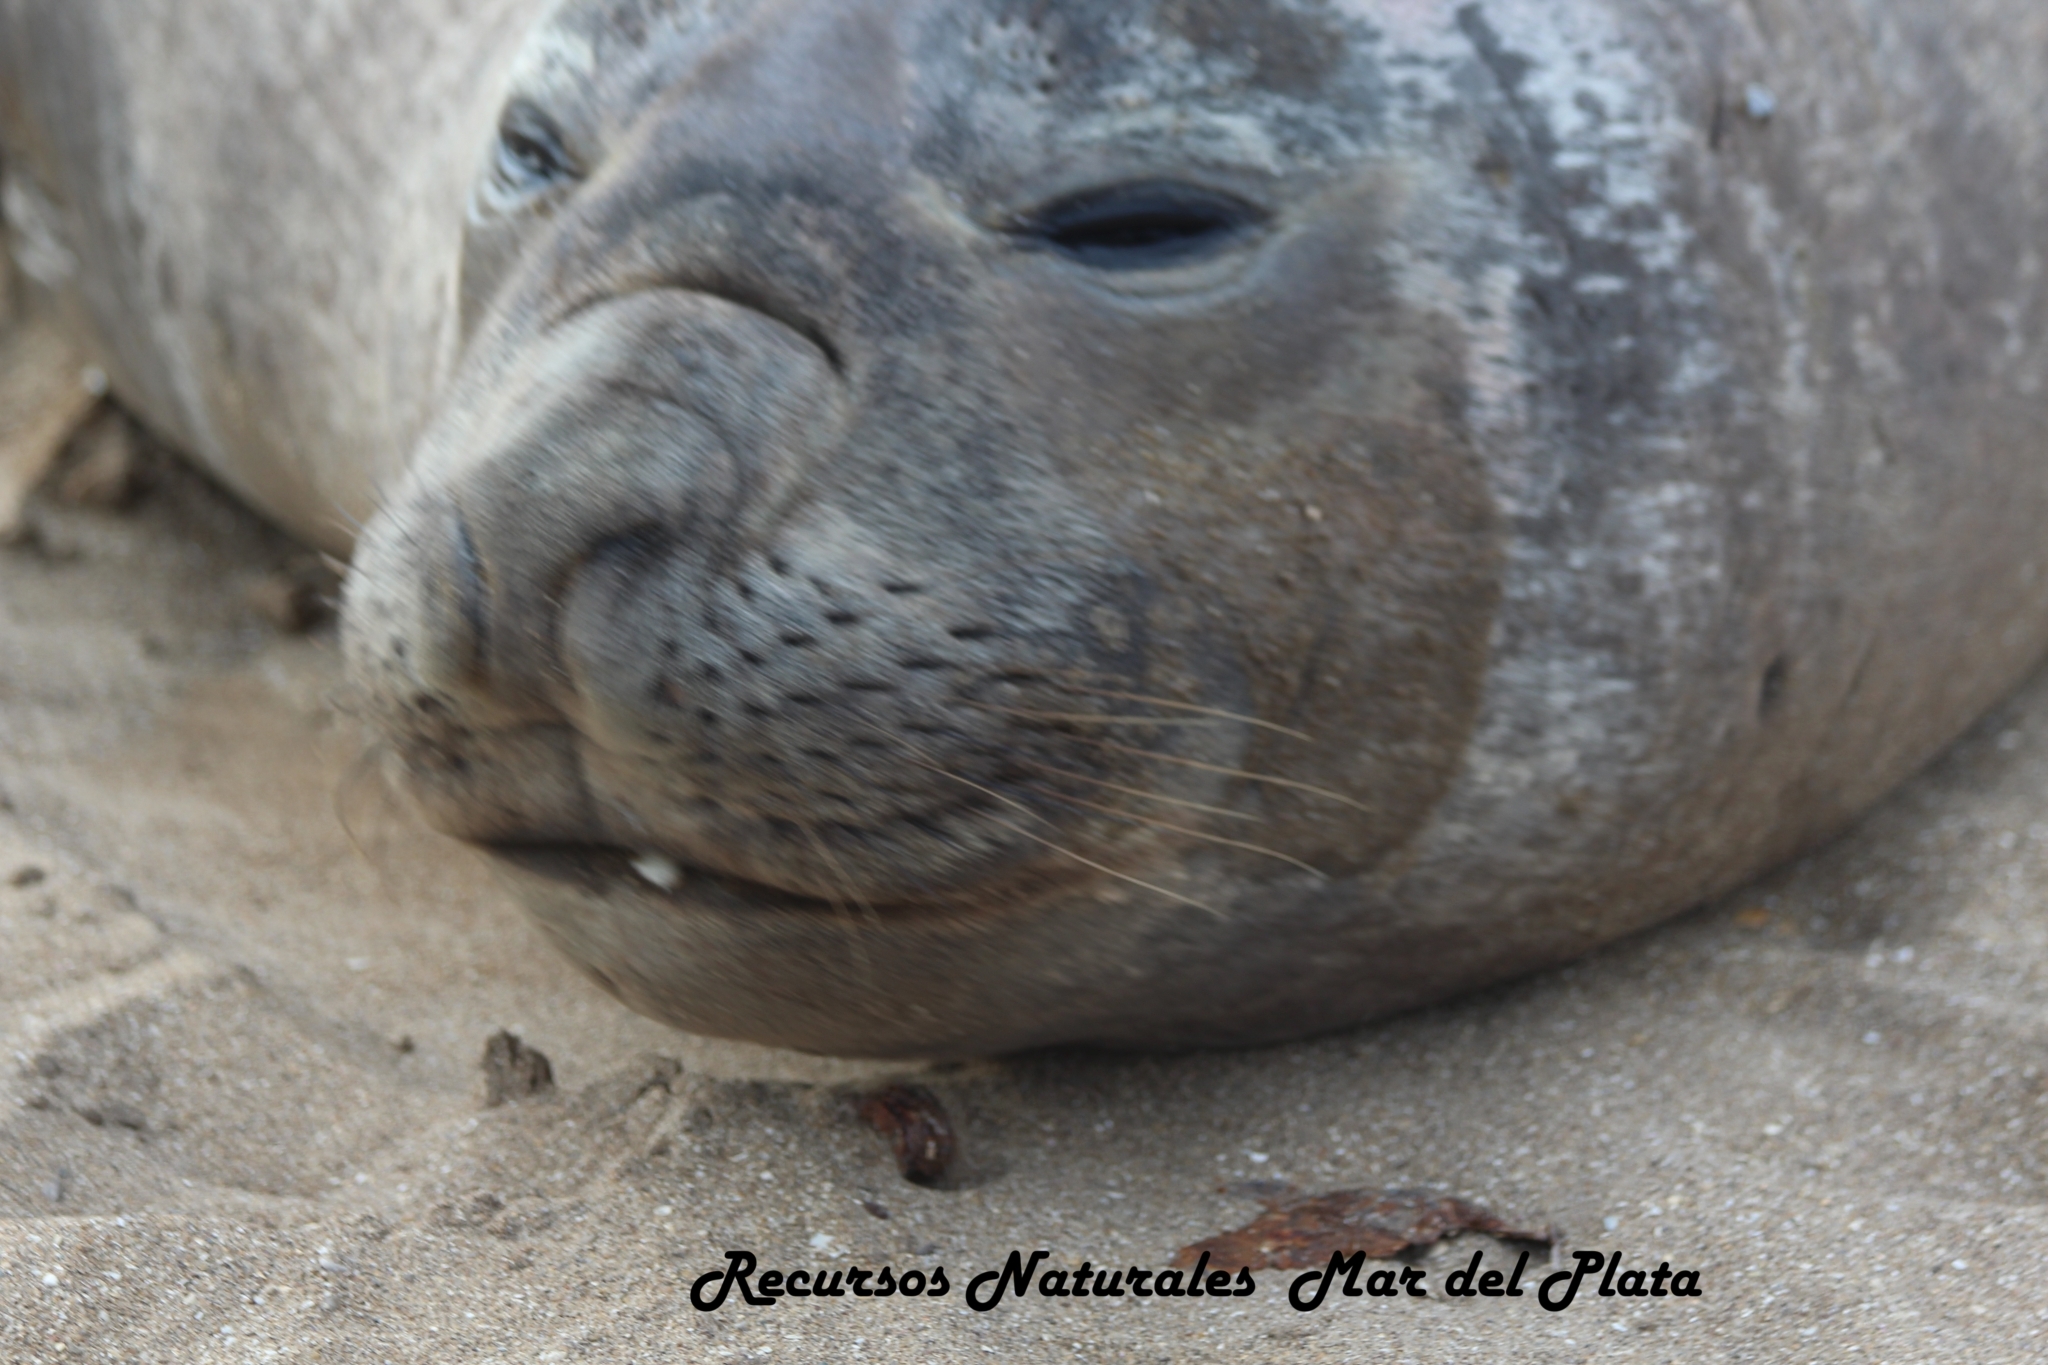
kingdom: Animalia
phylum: Chordata
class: Mammalia
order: Carnivora
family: Phocidae
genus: Mirounga
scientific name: Mirounga leonina
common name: Southern elephant seal
